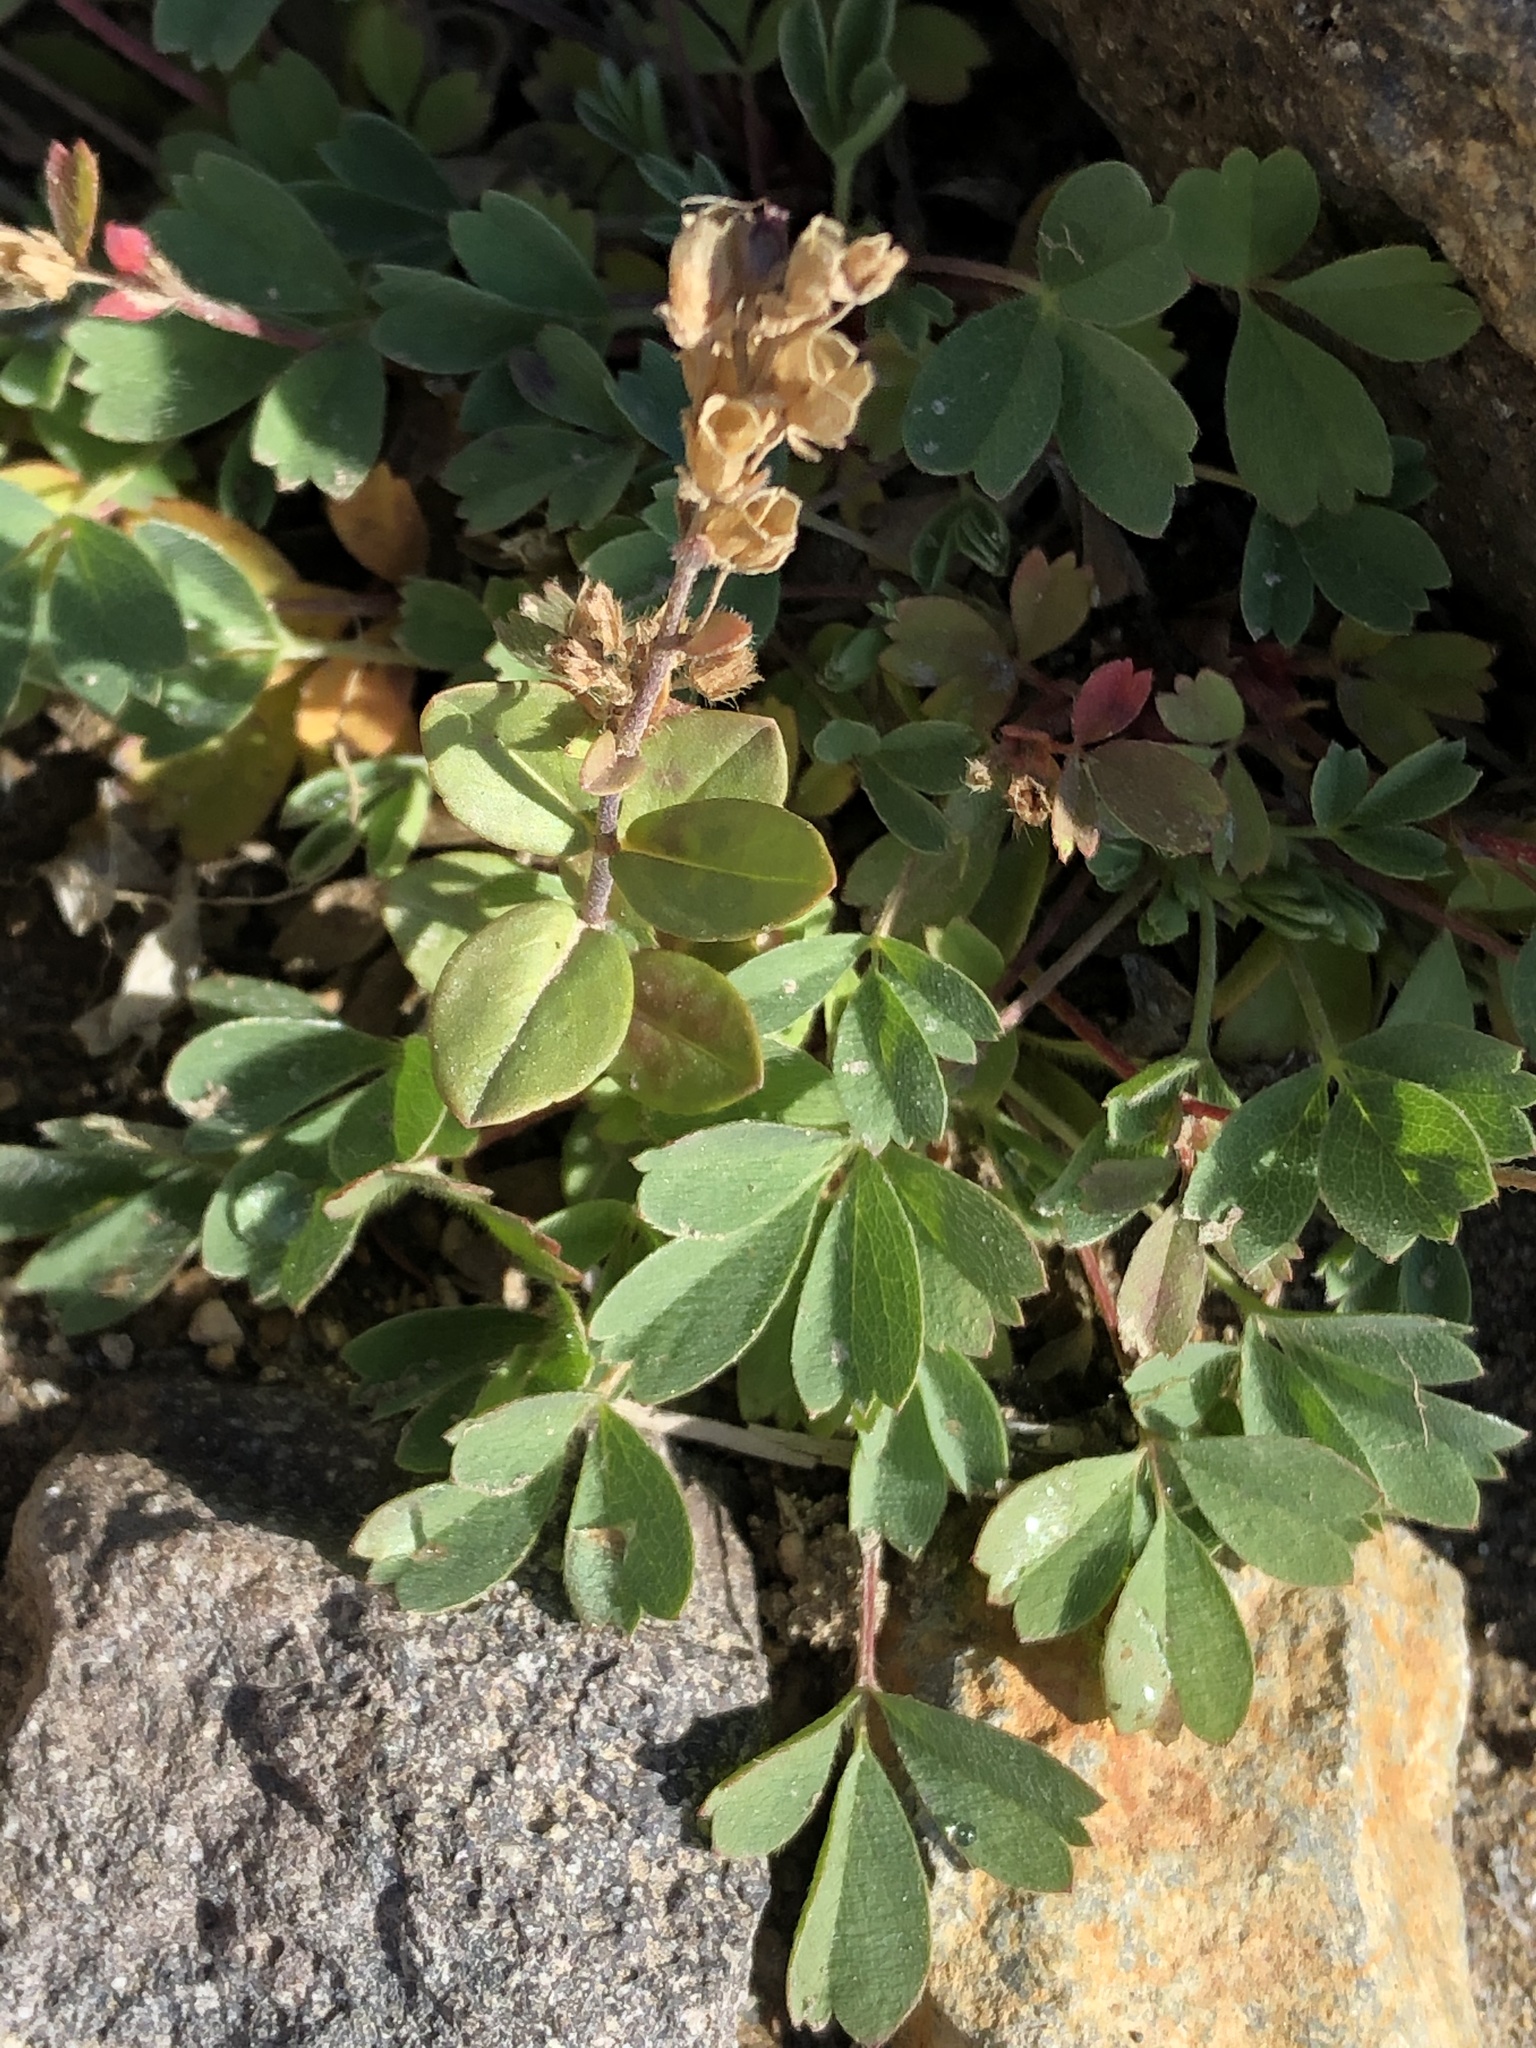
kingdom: Plantae
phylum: Tracheophyta
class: Magnoliopsida
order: Rosales
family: Rosaceae
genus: Sibbaldia
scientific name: Sibbaldia procumbens
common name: Creeping sibbaldia
